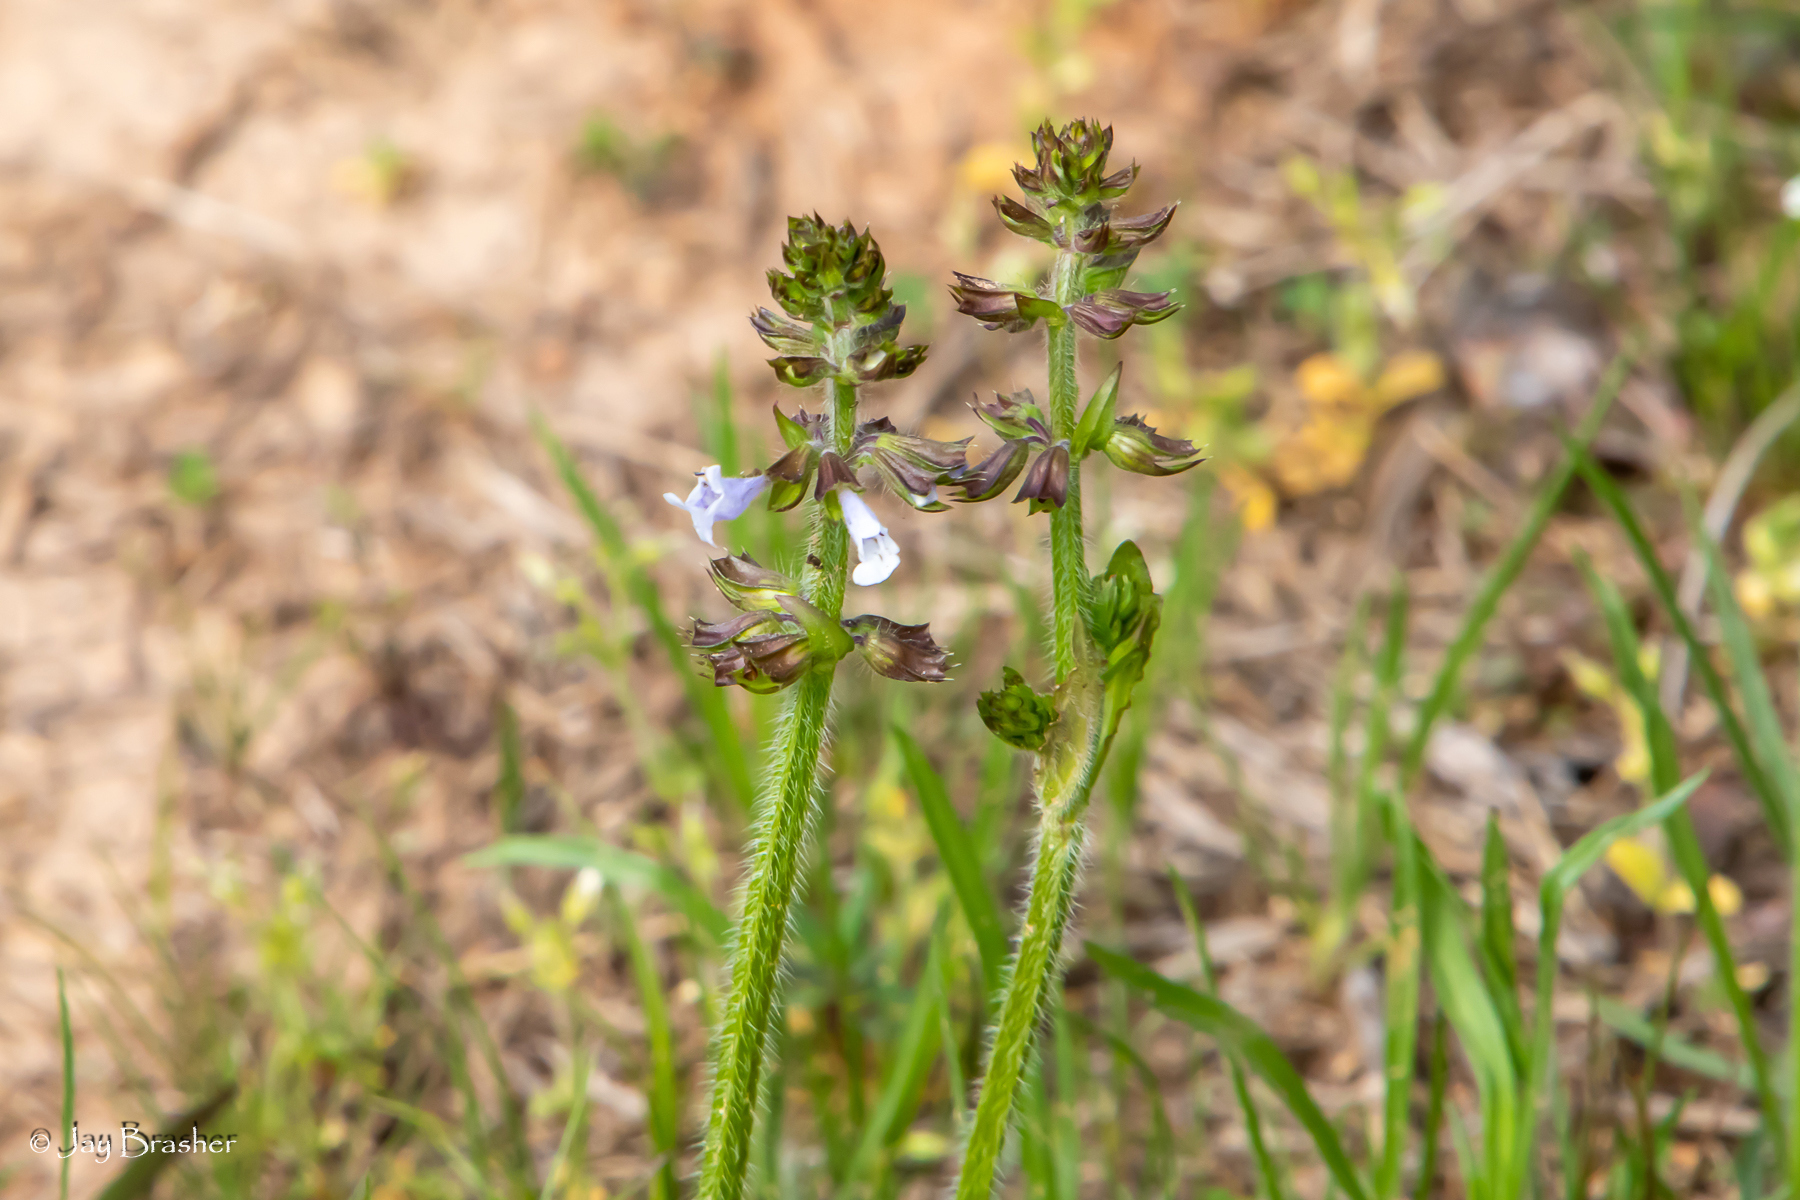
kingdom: Plantae
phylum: Tracheophyta
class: Magnoliopsida
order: Lamiales
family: Lamiaceae
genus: Salvia
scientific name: Salvia lyrata
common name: Cancerweed
